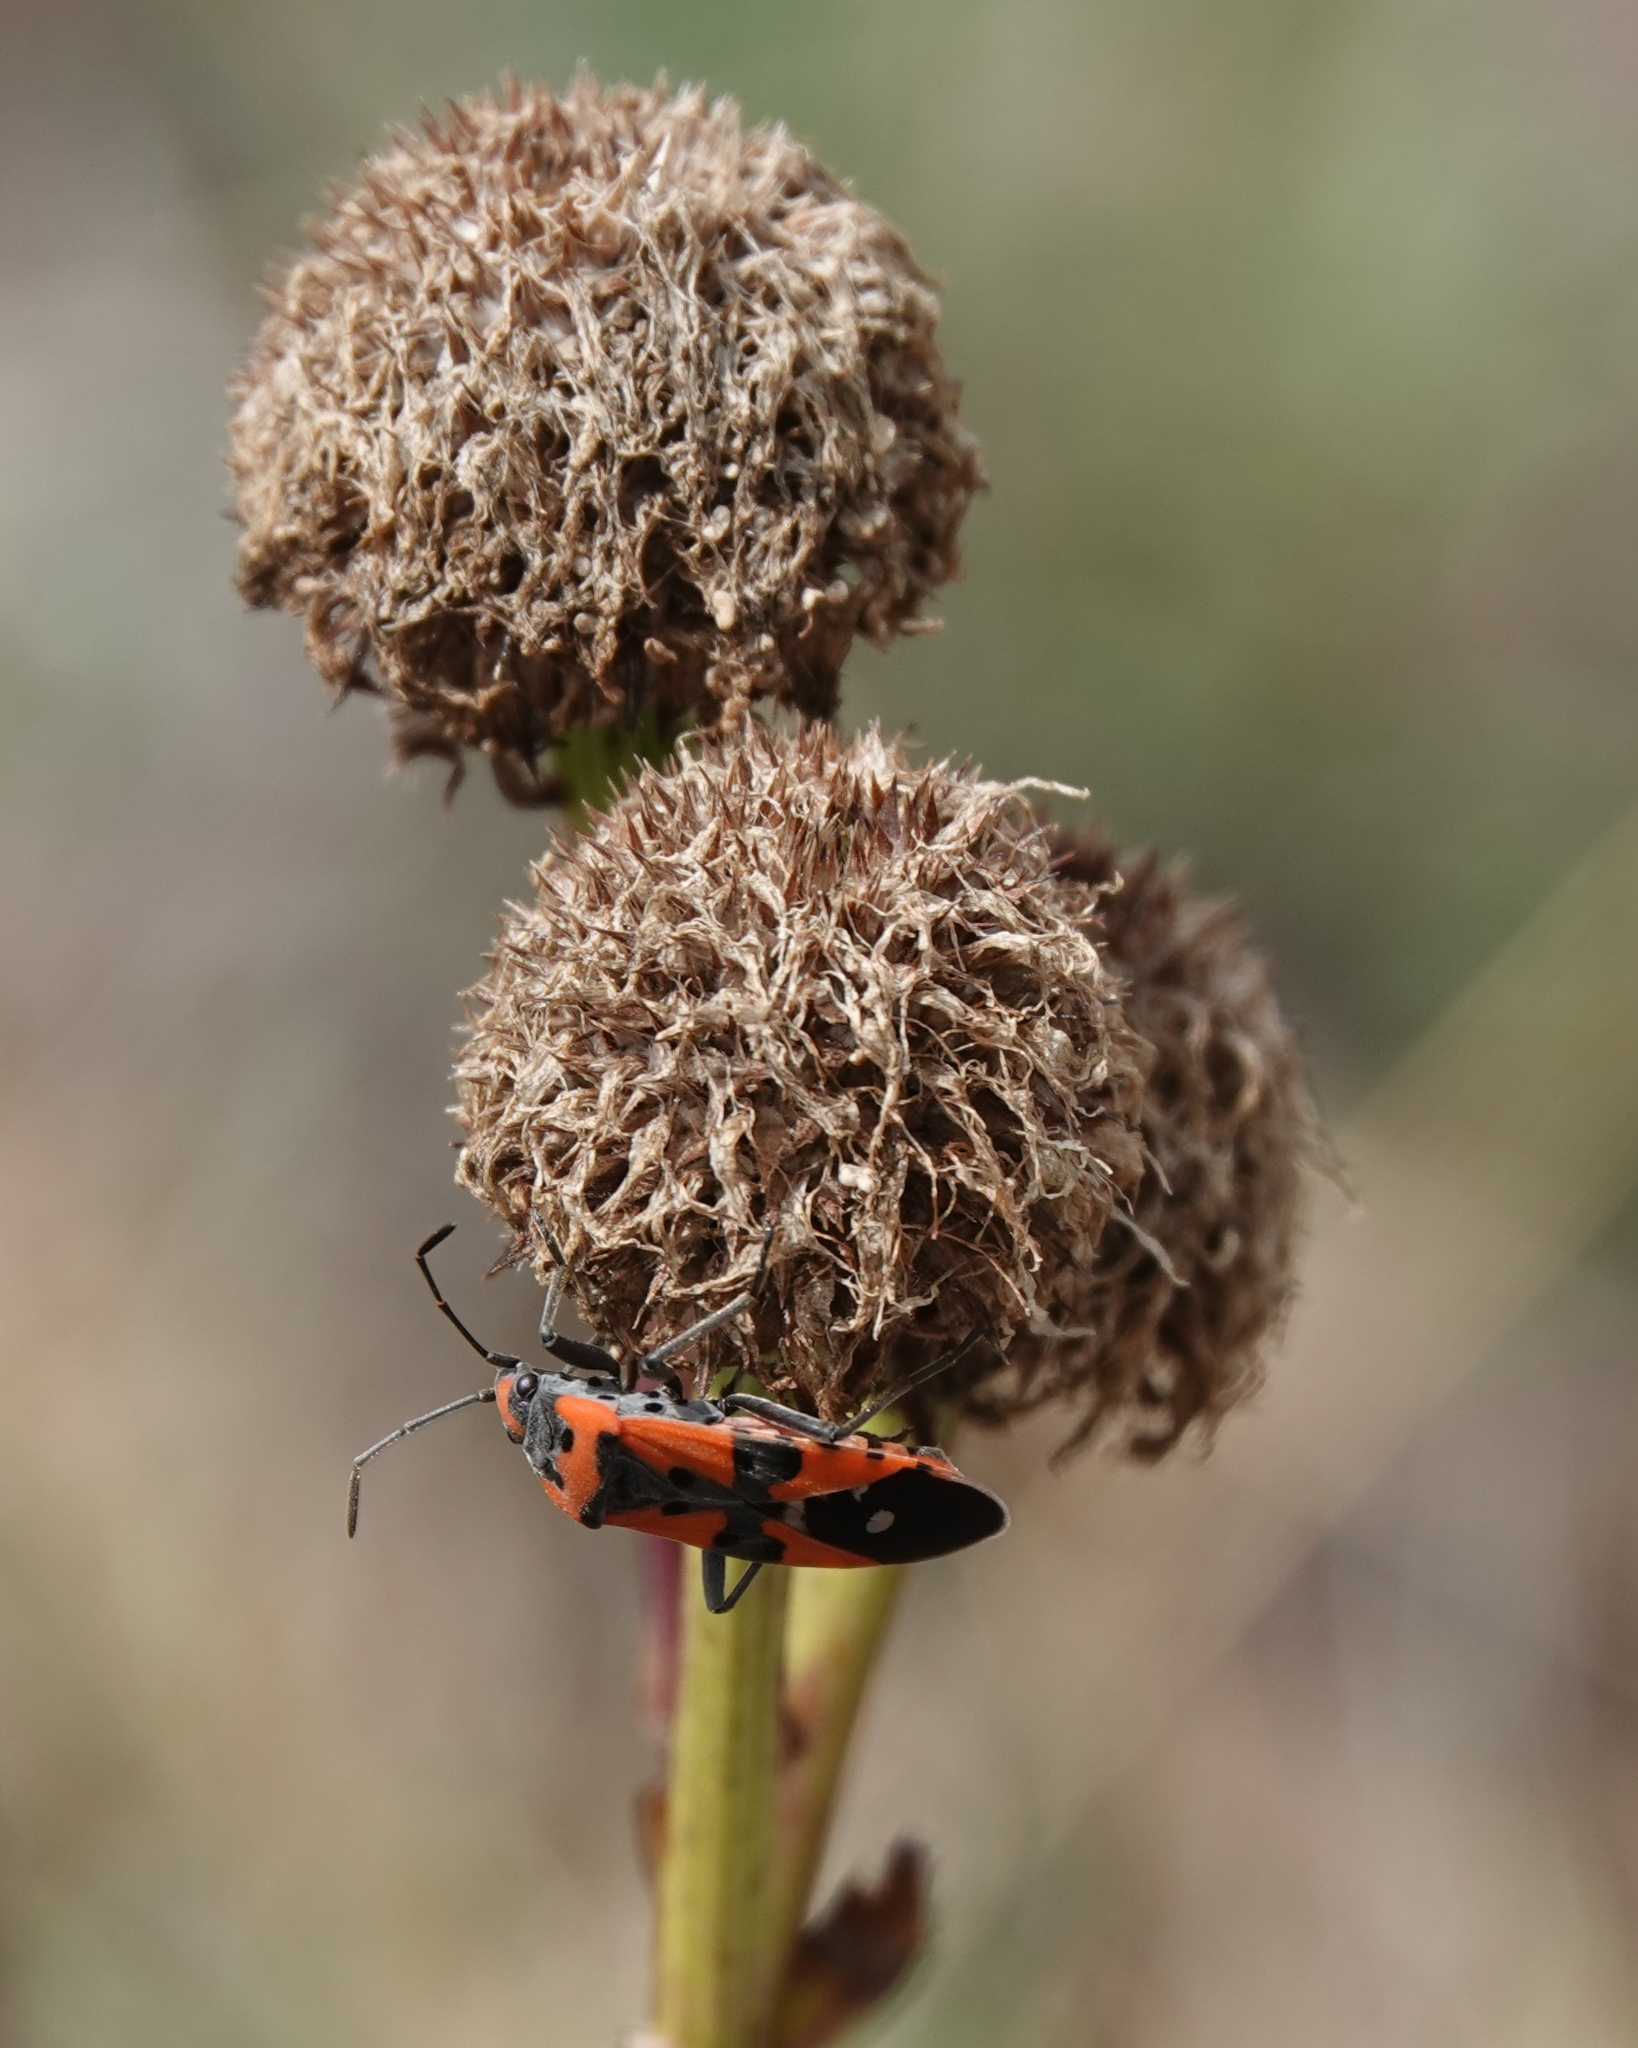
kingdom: Animalia
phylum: Arthropoda
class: Insecta
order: Hemiptera
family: Lygaeidae
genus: Lygaeus
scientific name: Lygaeus equestris
